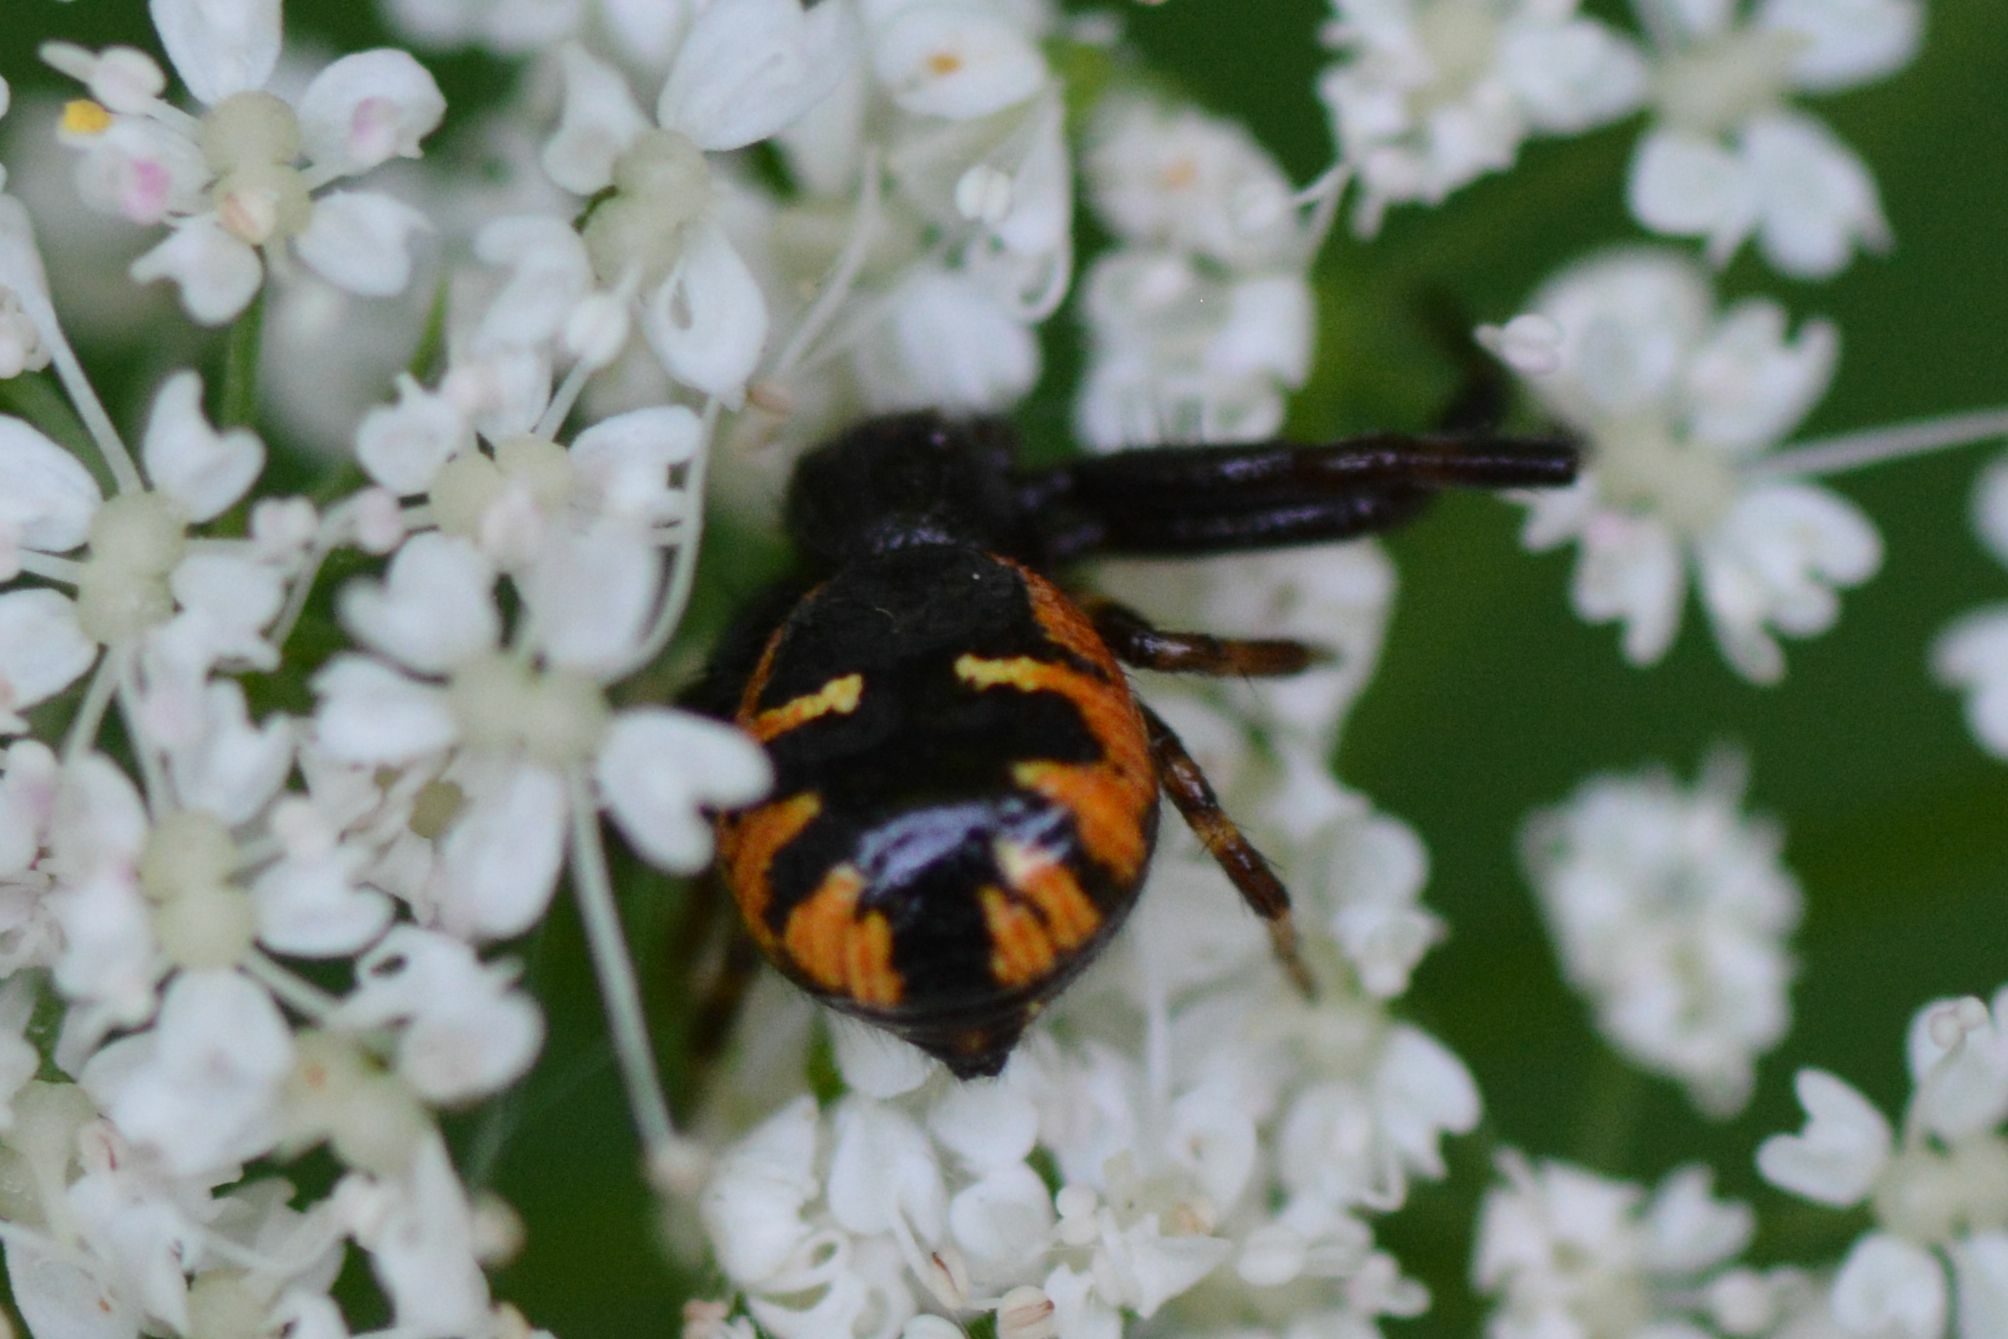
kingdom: Animalia
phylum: Arthropoda
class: Arachnida
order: Araneae
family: Thomisidae
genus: Synema
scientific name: Synema globosum
